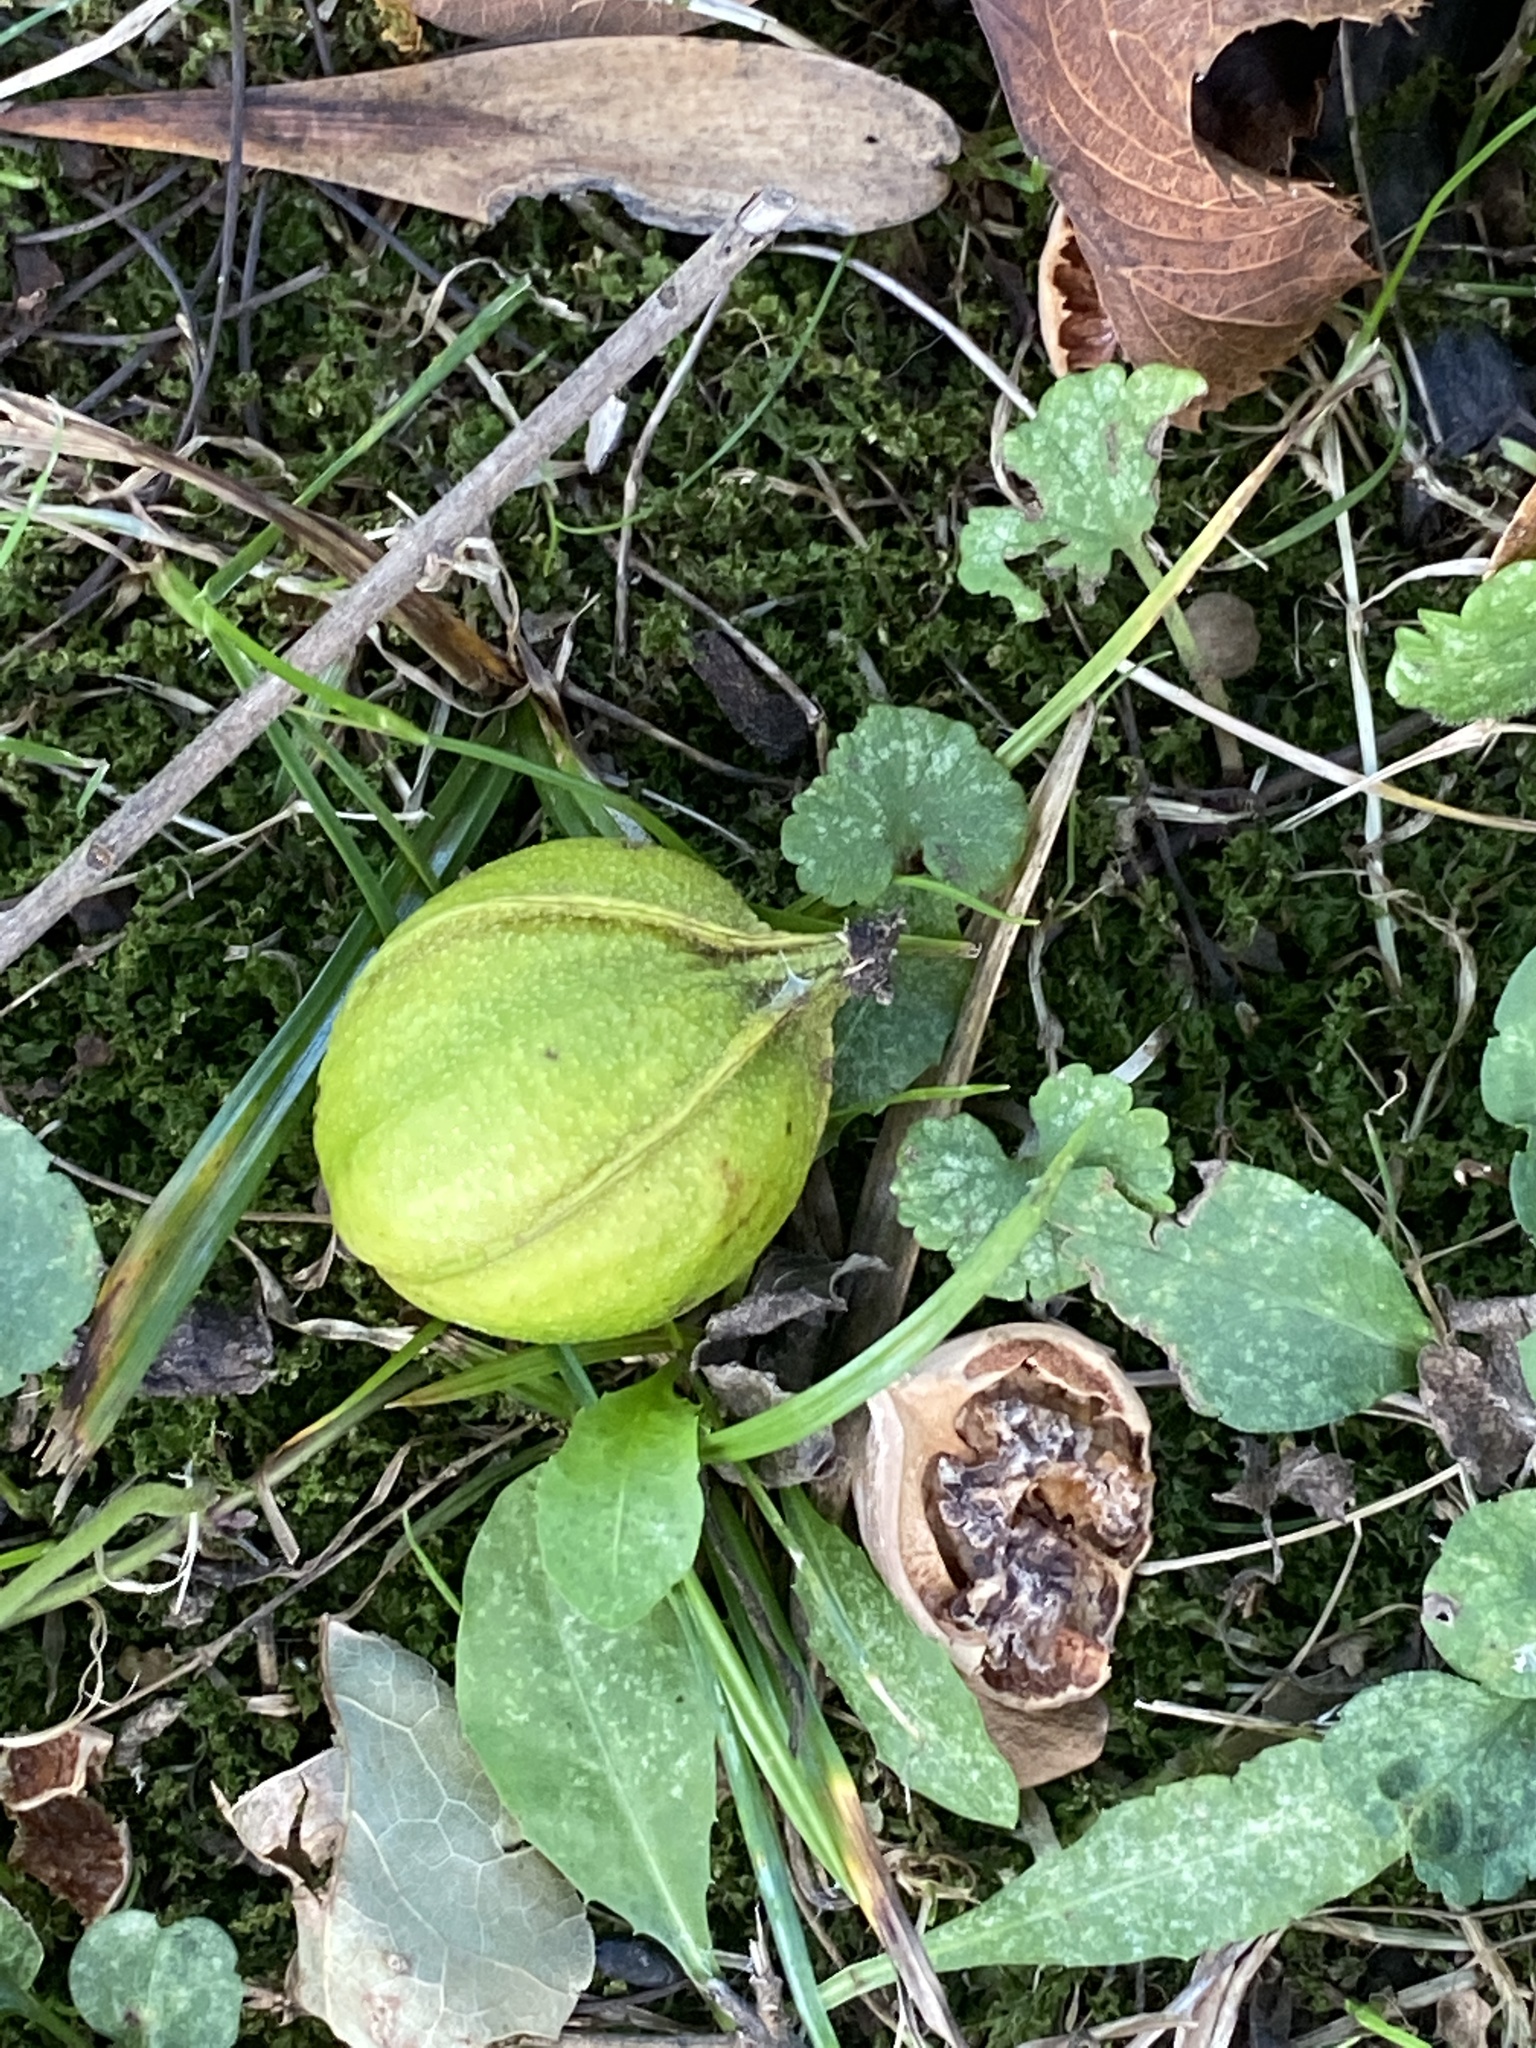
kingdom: Plantae
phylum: Tracheophyta
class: Magnoliopsida
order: Fagales
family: Juglandaceae
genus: Carya
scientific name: Carya cordiformis
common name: Bitternut hickory
